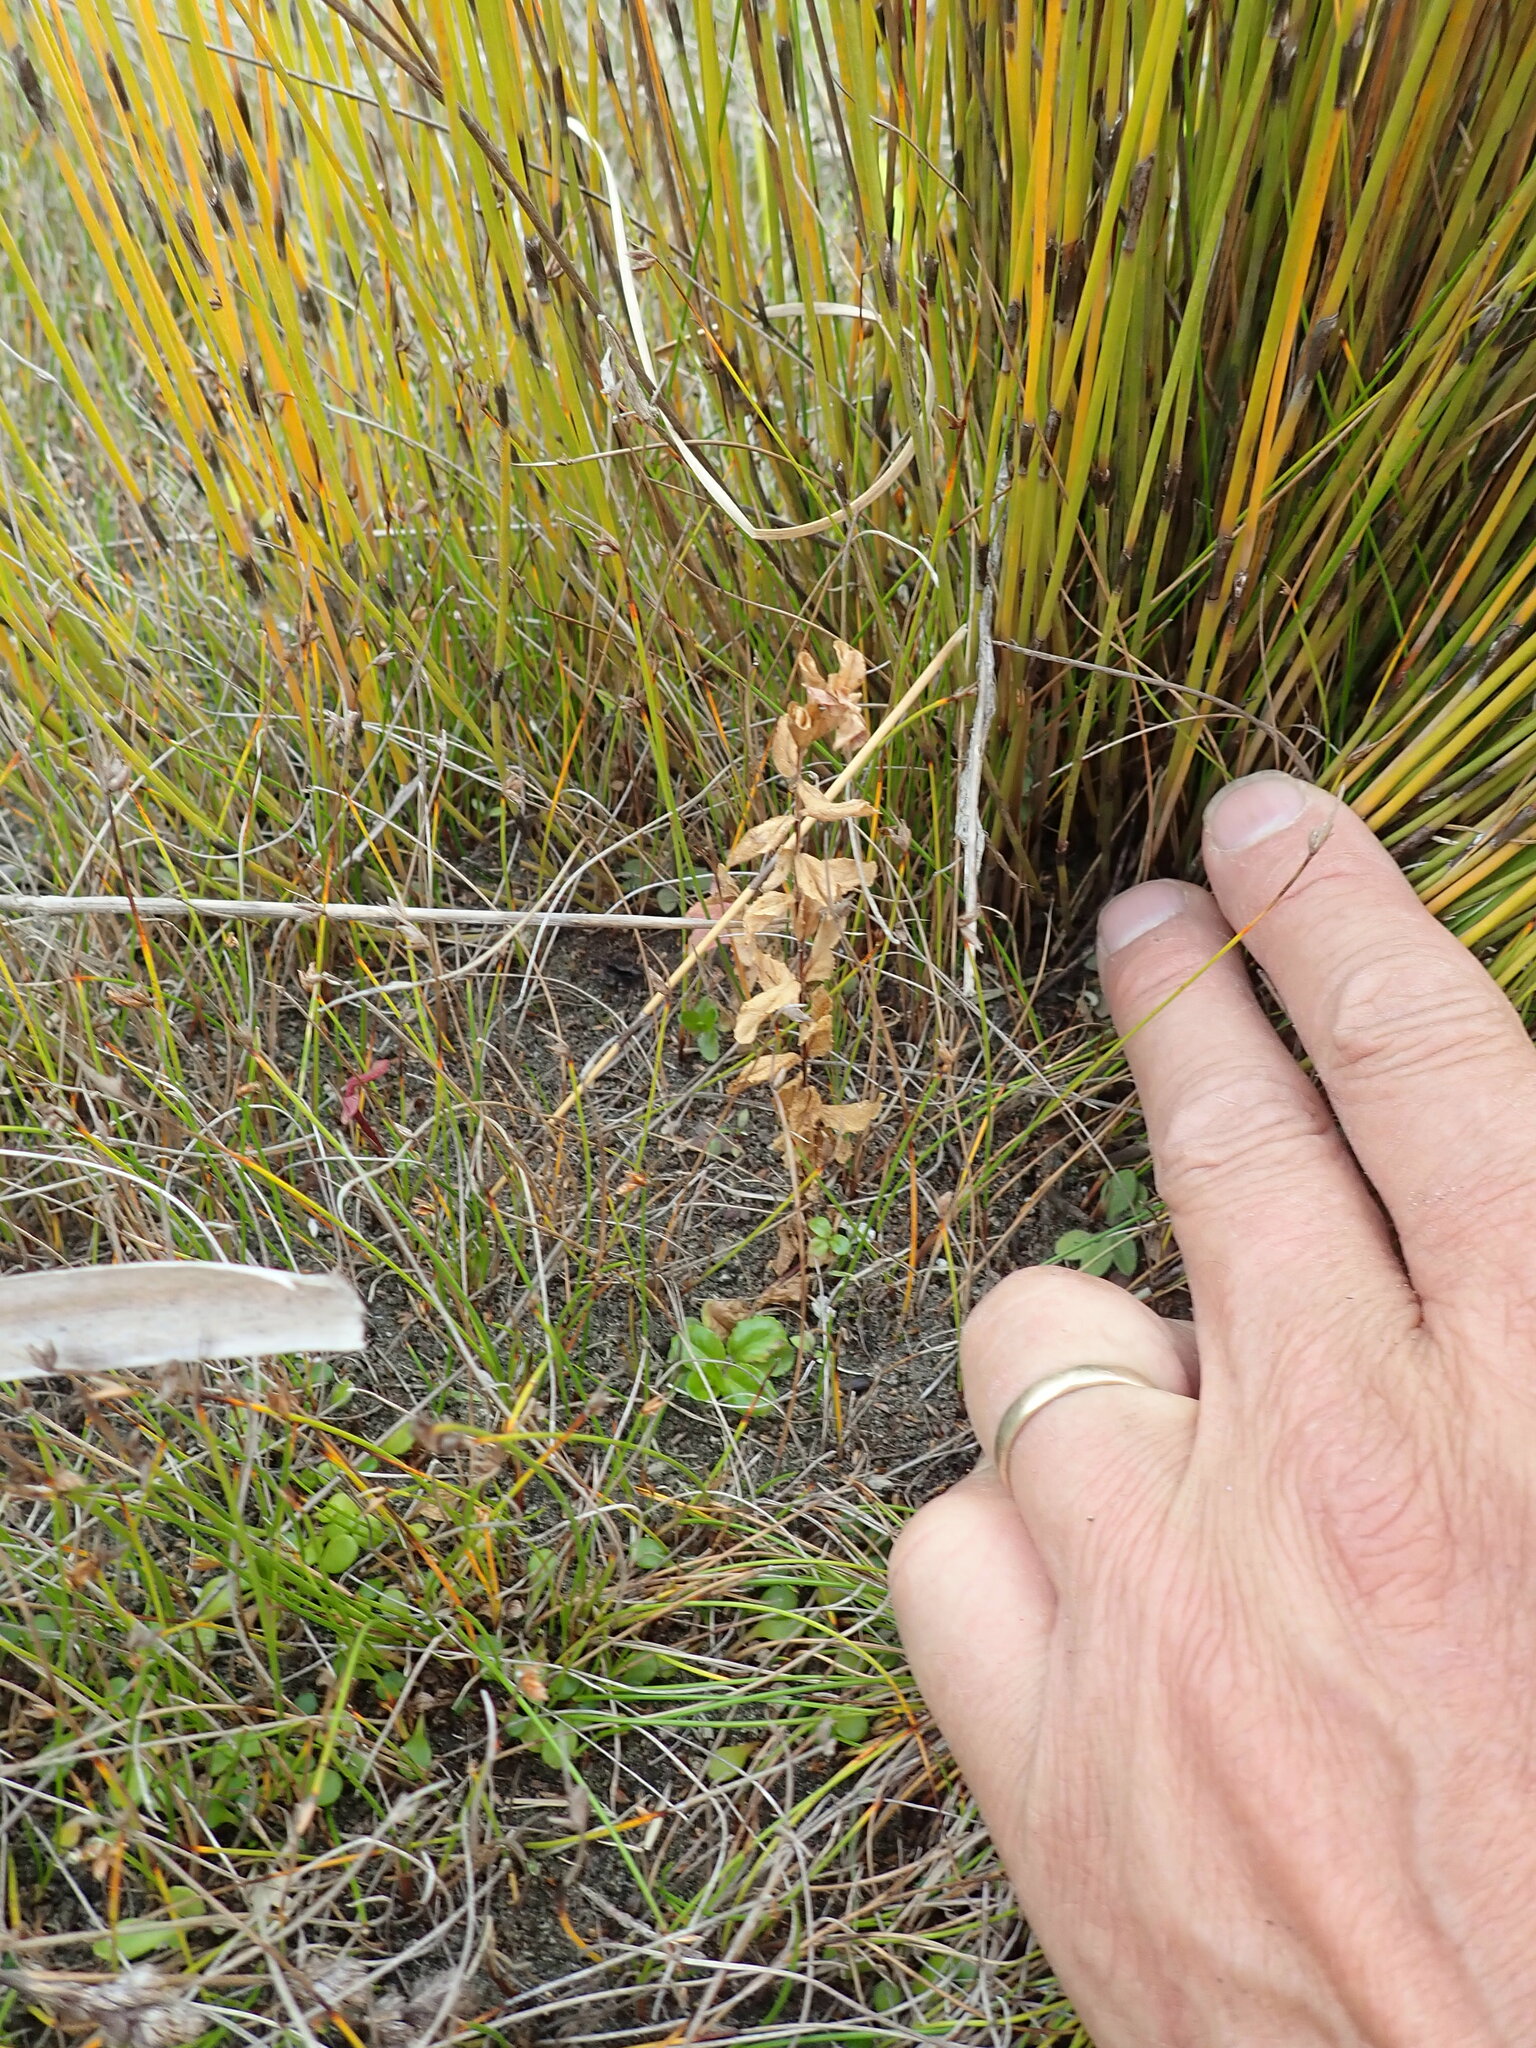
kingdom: Plantae
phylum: Tracheophyta
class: Magnoliopsida
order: Myrtales
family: Onagraceae
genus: Epilobium
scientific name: Epilobium billardiereanum
